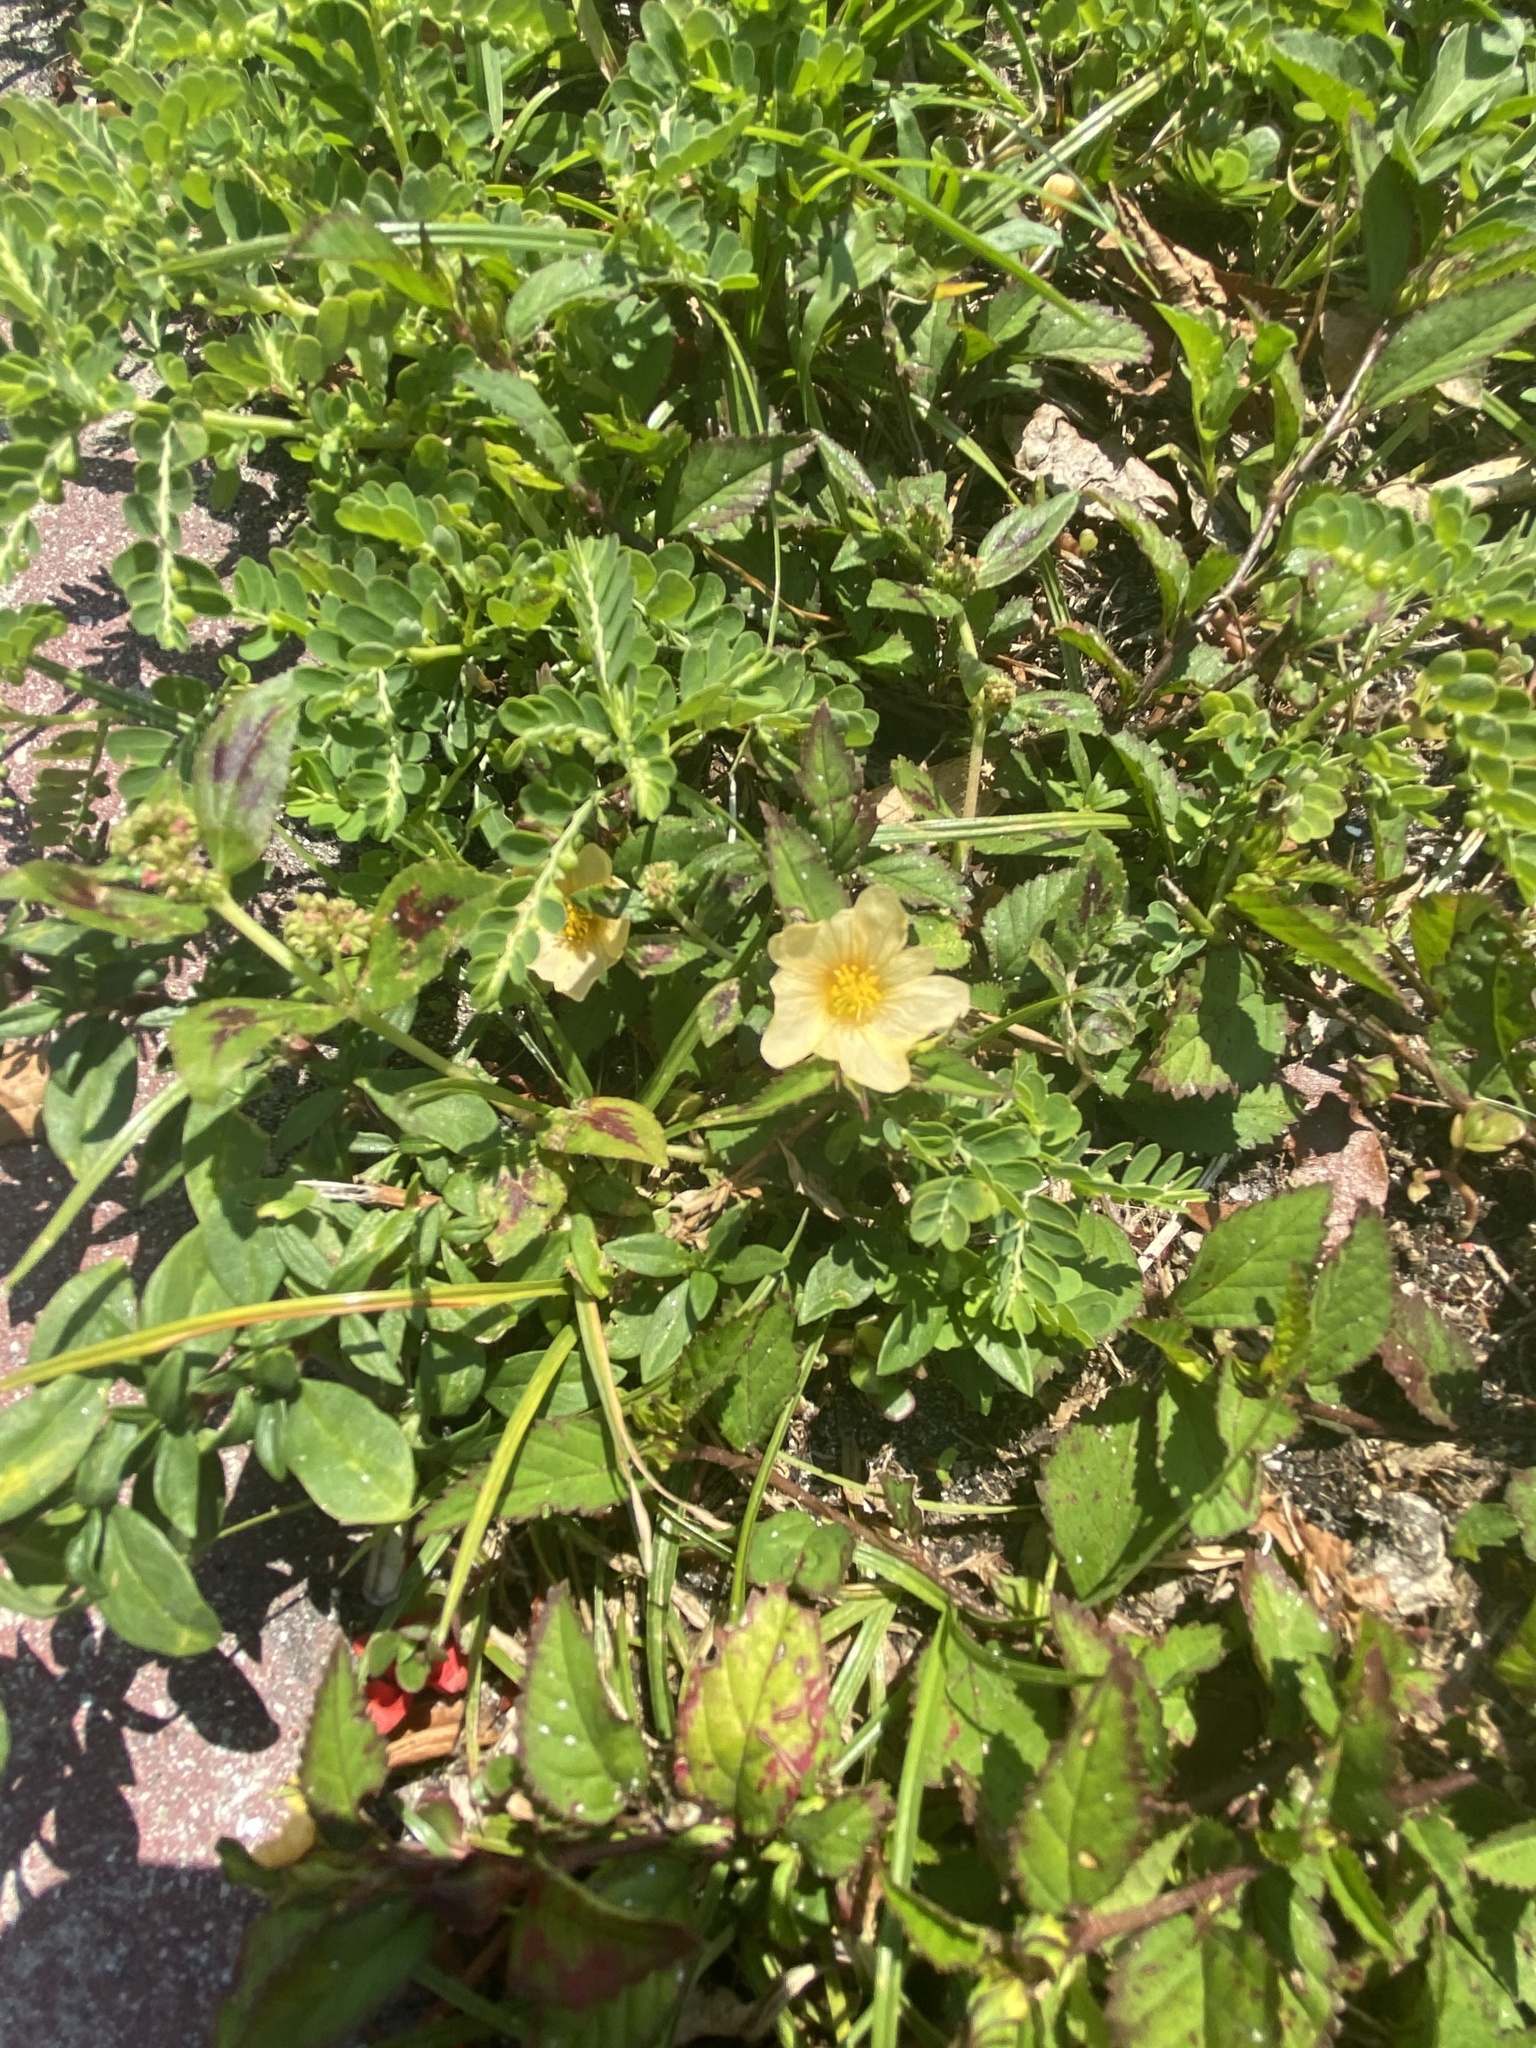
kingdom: Plantae
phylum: Tracheophyta
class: Magnoliopsida
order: Malvales
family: Malvaceae
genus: Sida
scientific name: Sida rhombifolia
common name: Queensland-hemp
